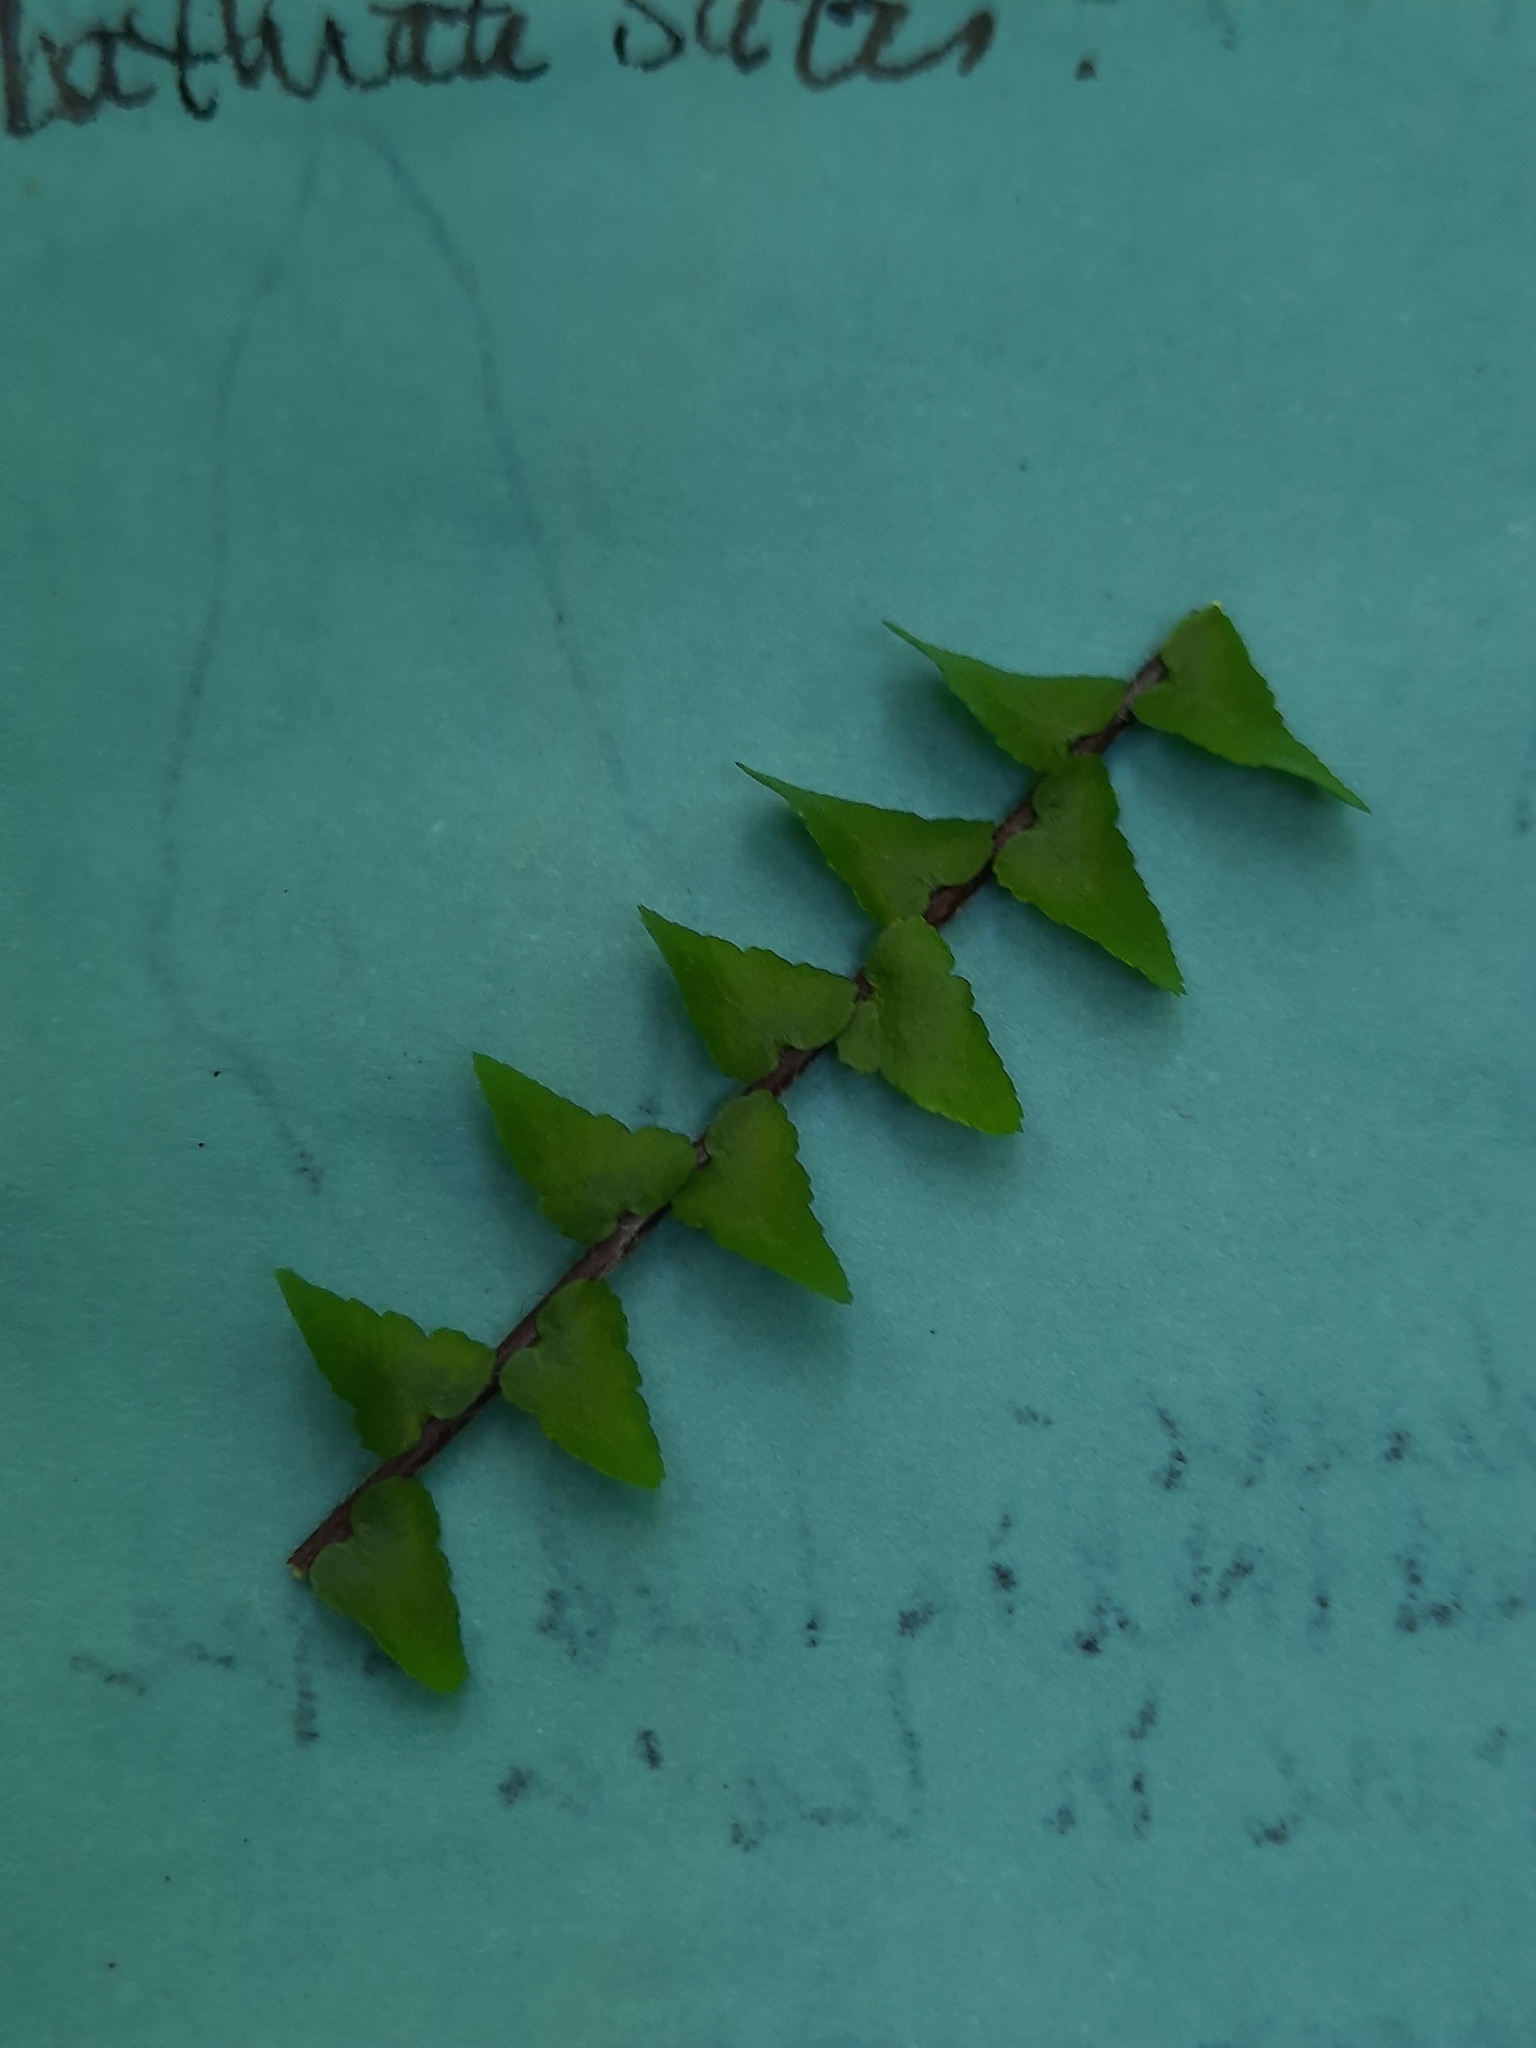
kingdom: Plantae
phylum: Tracheophyta
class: Polypodiopsida
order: Polypodiales
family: Aspleniaceae
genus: Asplenium
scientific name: Asplenium platyneuron
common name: Ebony spleenwort
